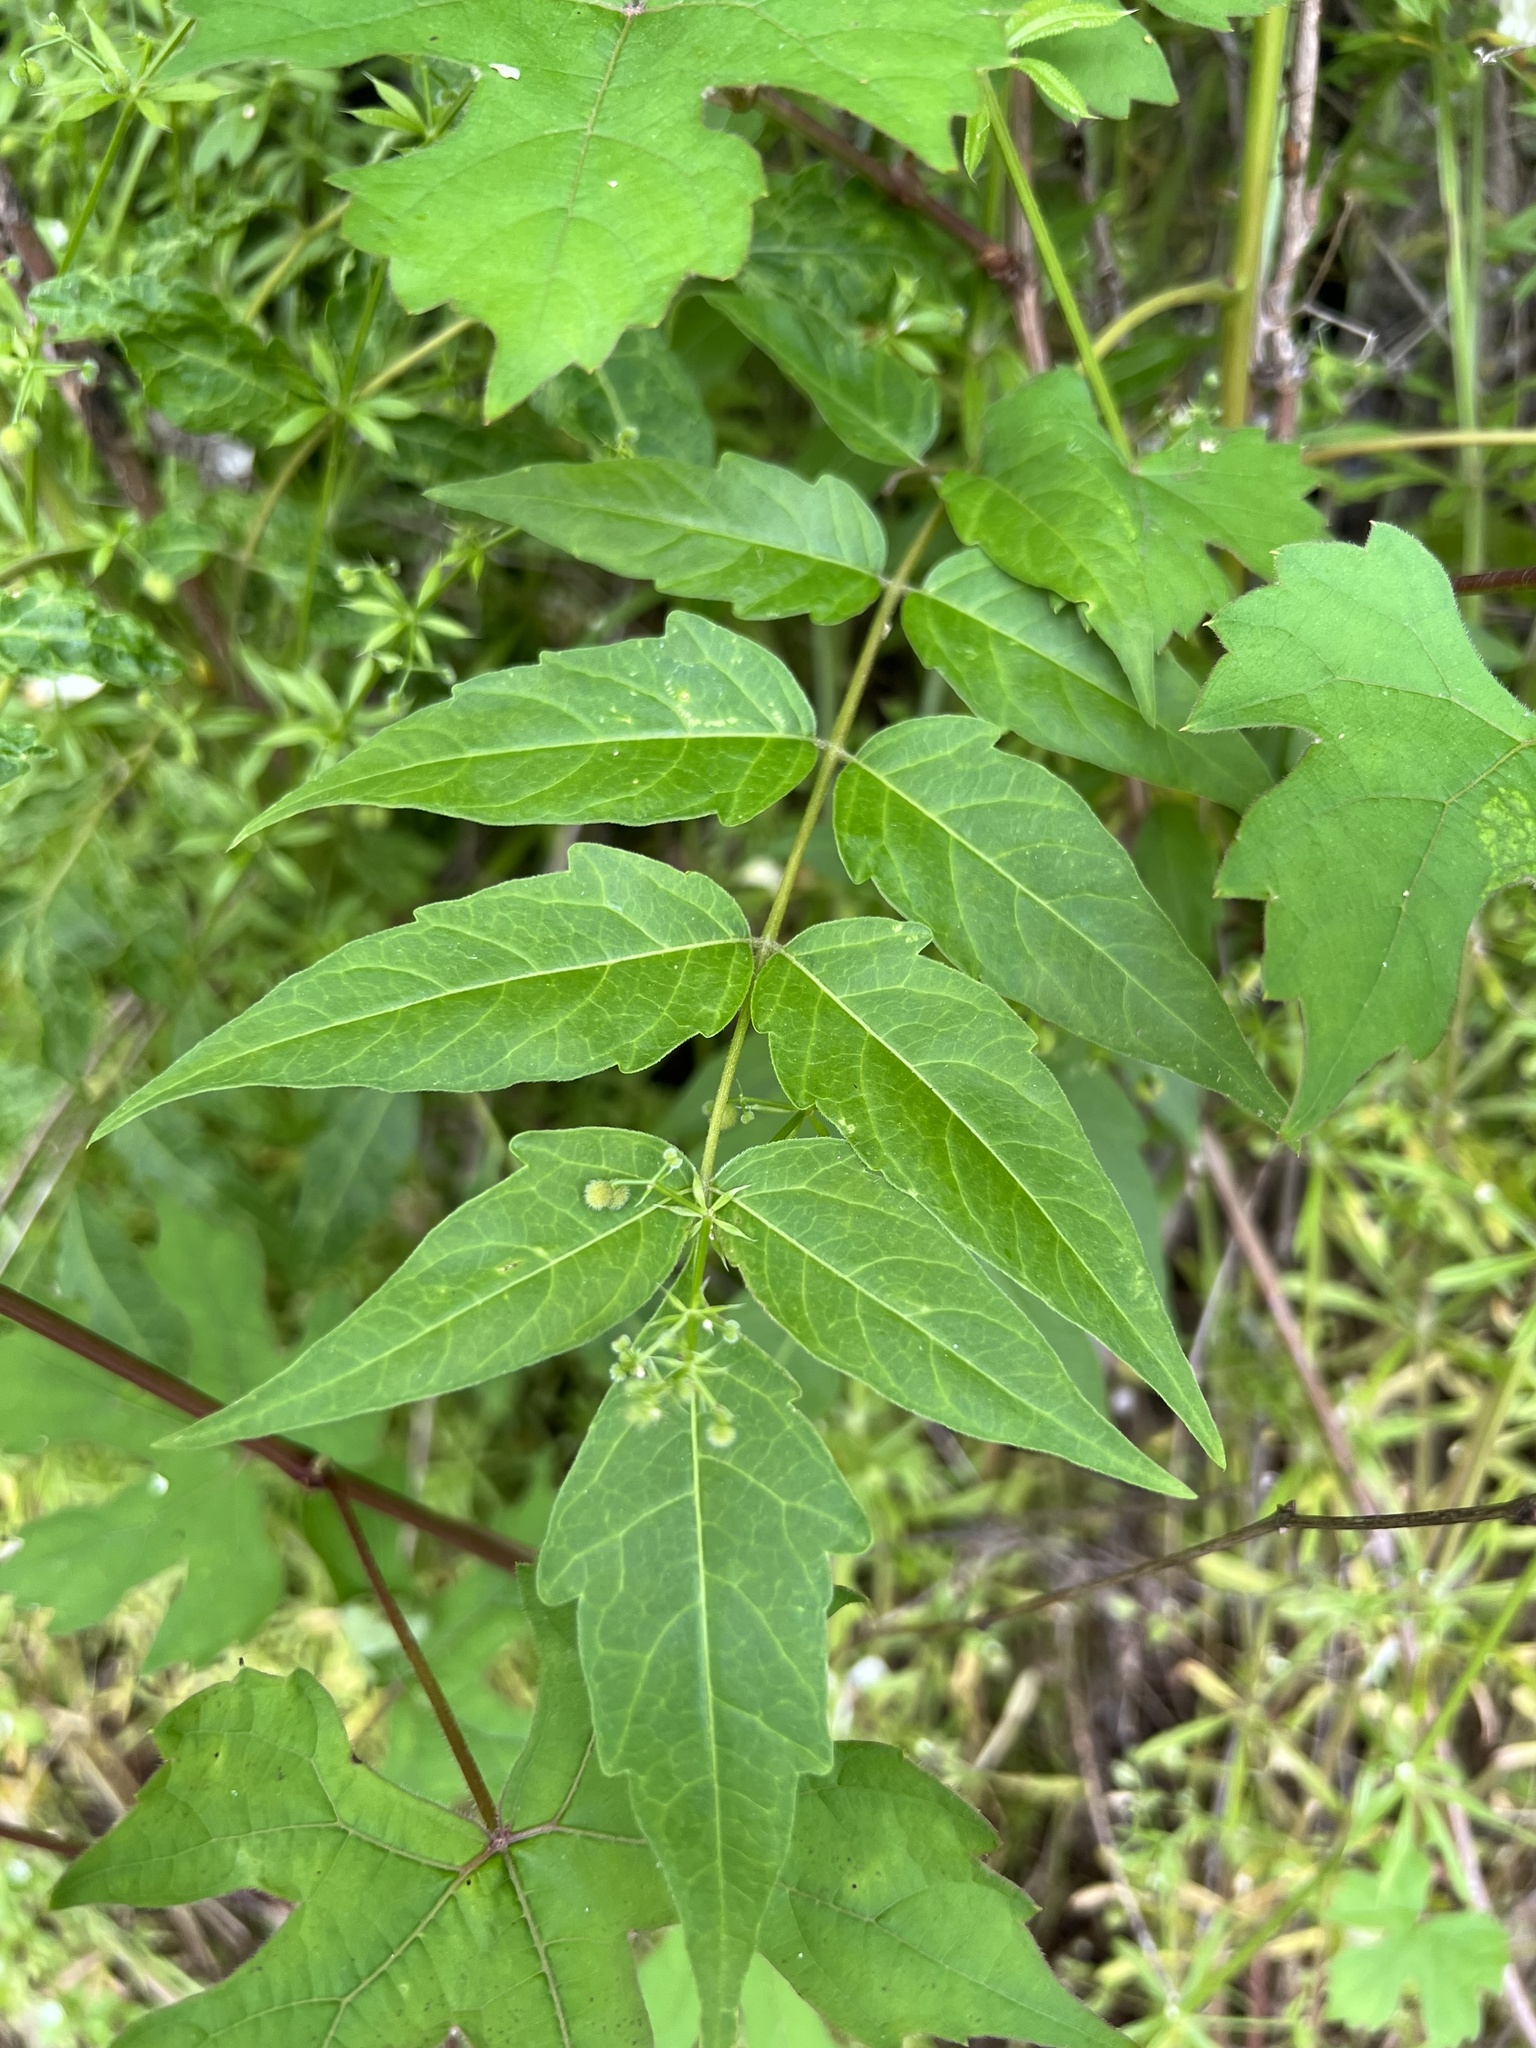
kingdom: Plantae
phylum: Tracheophyta
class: Magnoliopsida
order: Sapindales
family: Simaroubaceae
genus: Ailanthus
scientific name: Ailanthus altissima
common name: Tree-of-heaven
